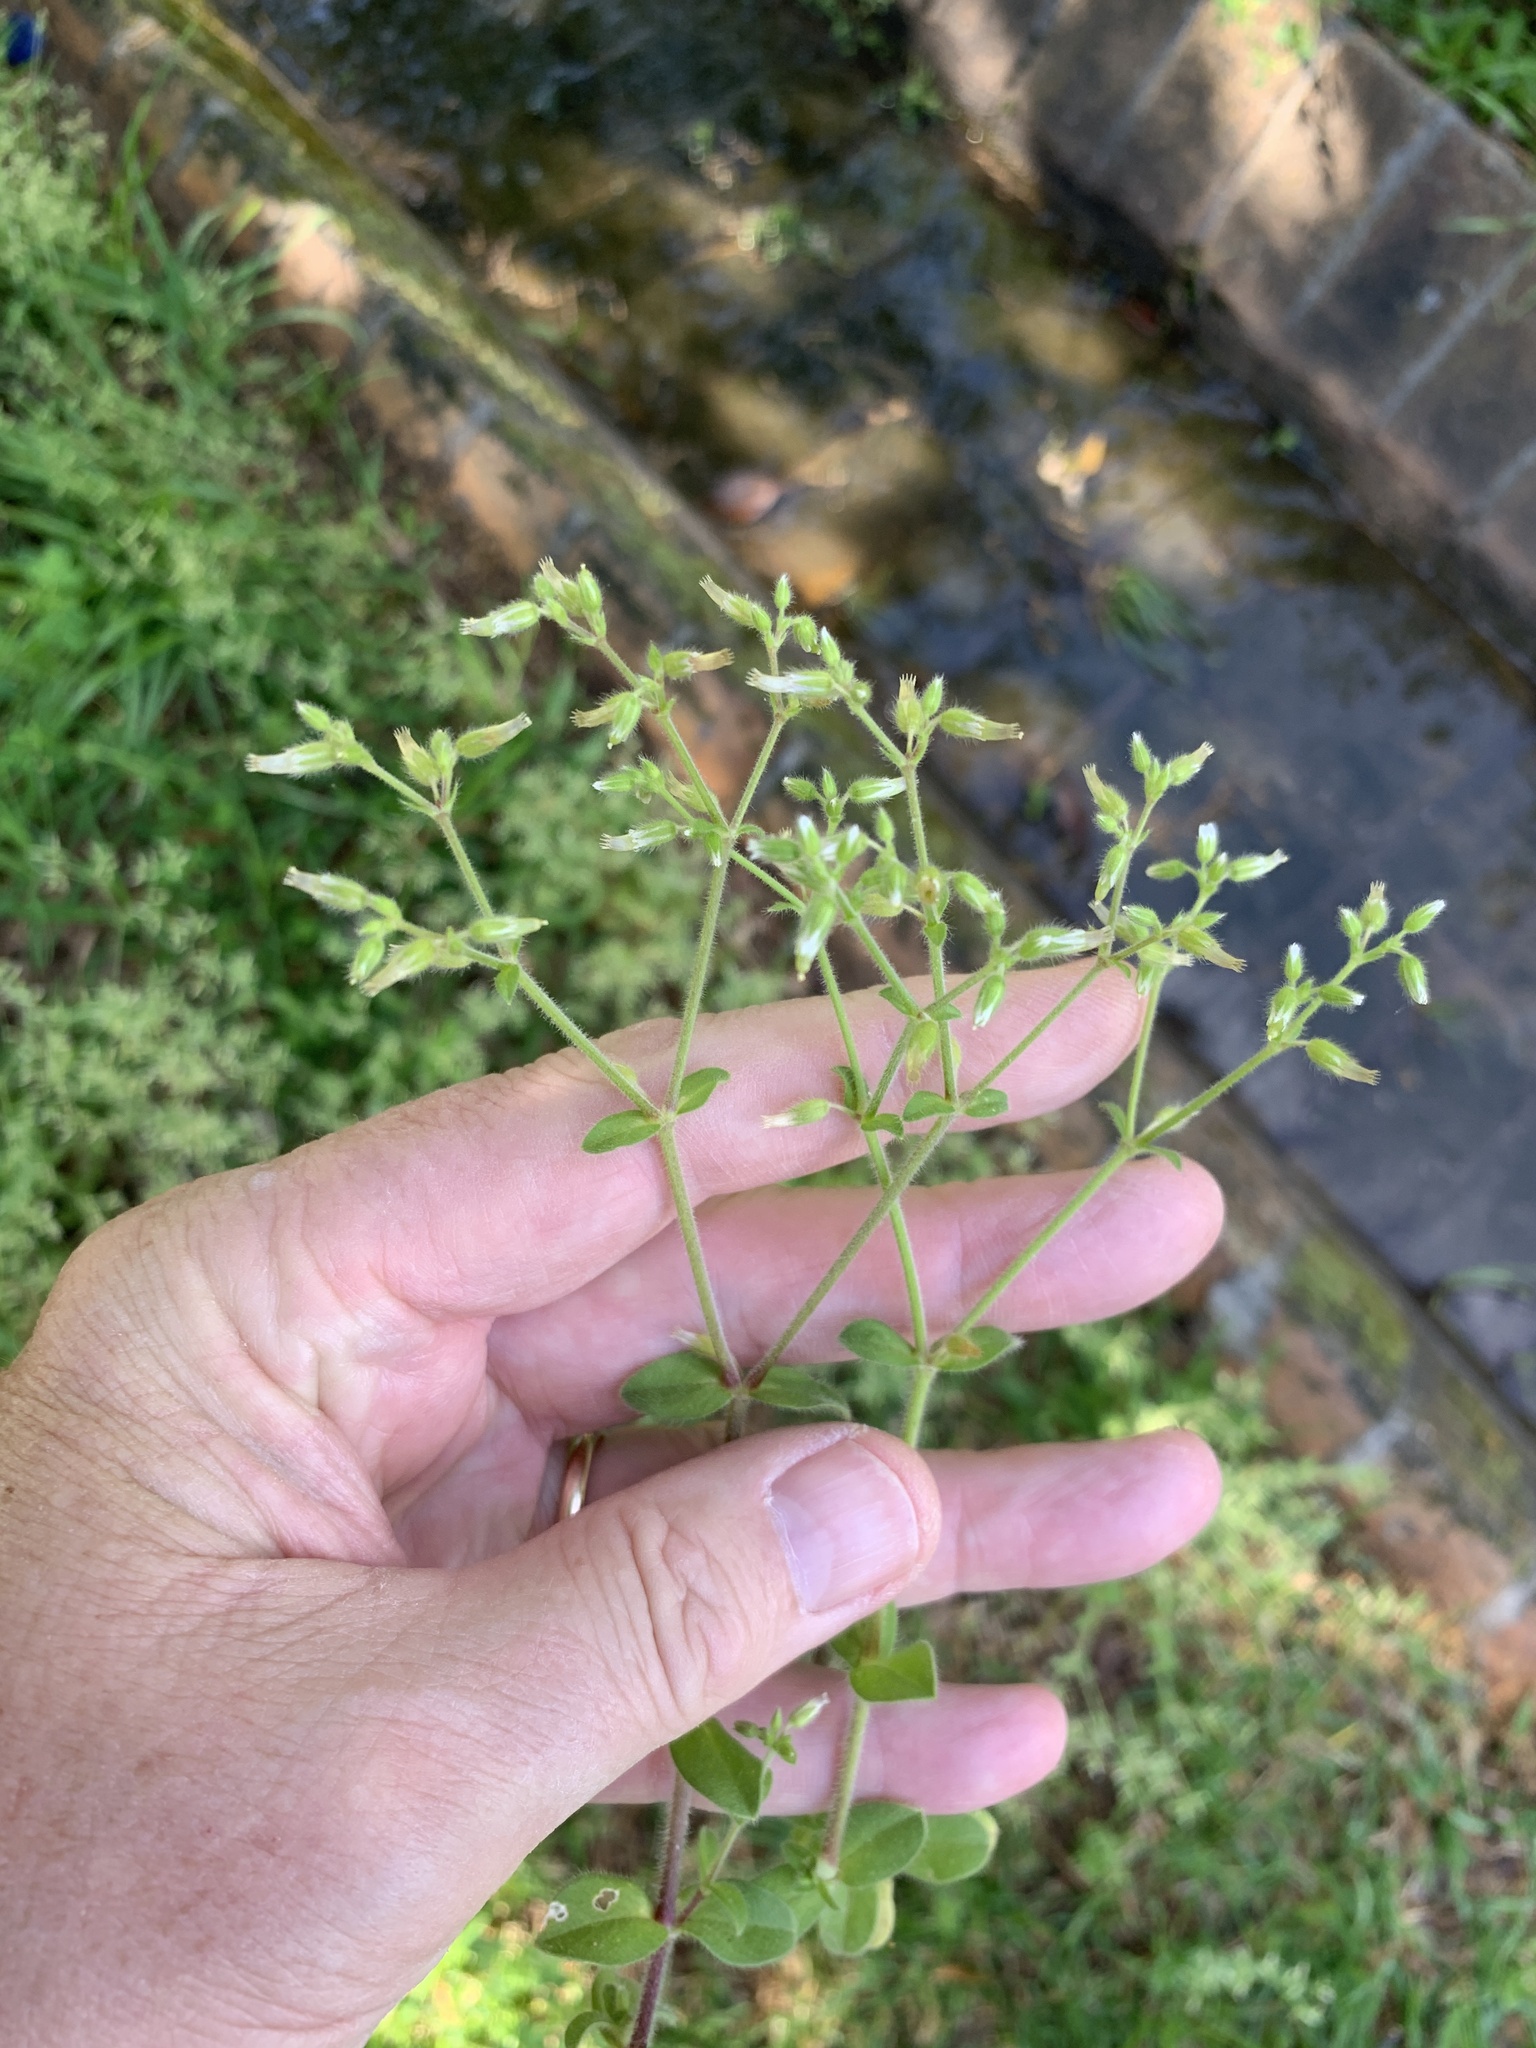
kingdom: Plantae
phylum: Tracheophyta
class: Magnoliopsida
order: Caryophyllales
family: Caryophyllaceae
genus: Cerastium
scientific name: Cerastium glomeratum
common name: Sticky chickweed
